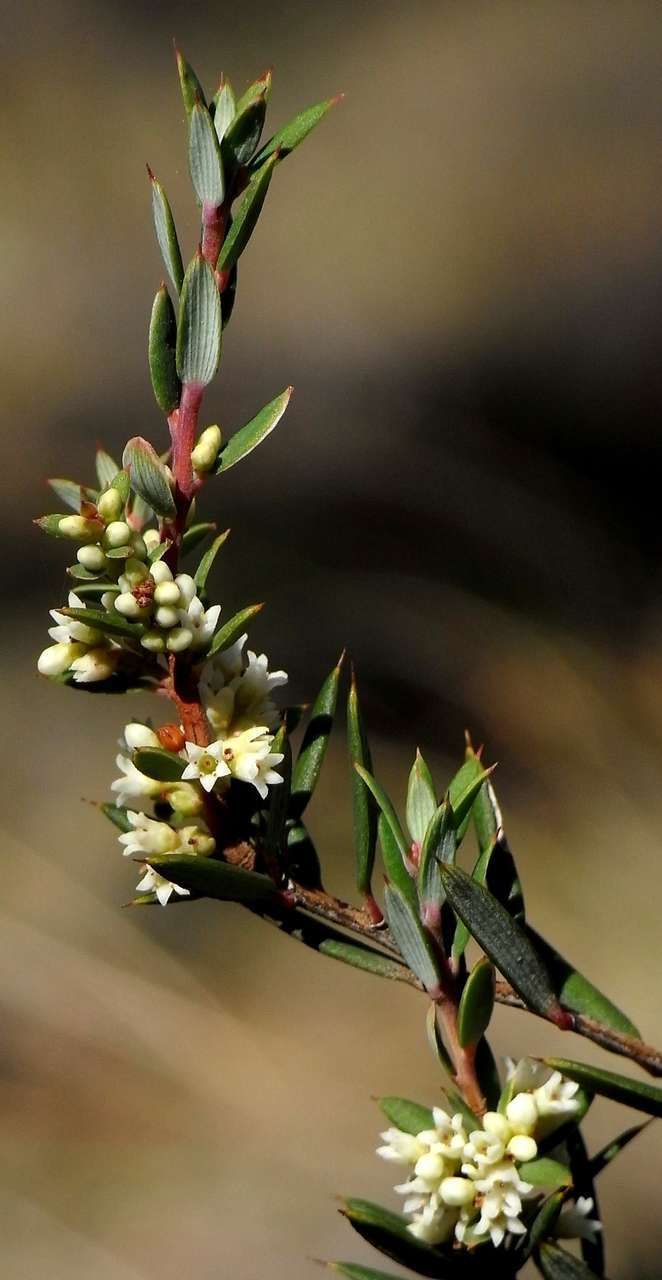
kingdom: Plantae
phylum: Tracheophyta
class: Magnoliopsida
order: Ericales
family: Ericaceae
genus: Monotoca
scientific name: Monotoca scoparia
